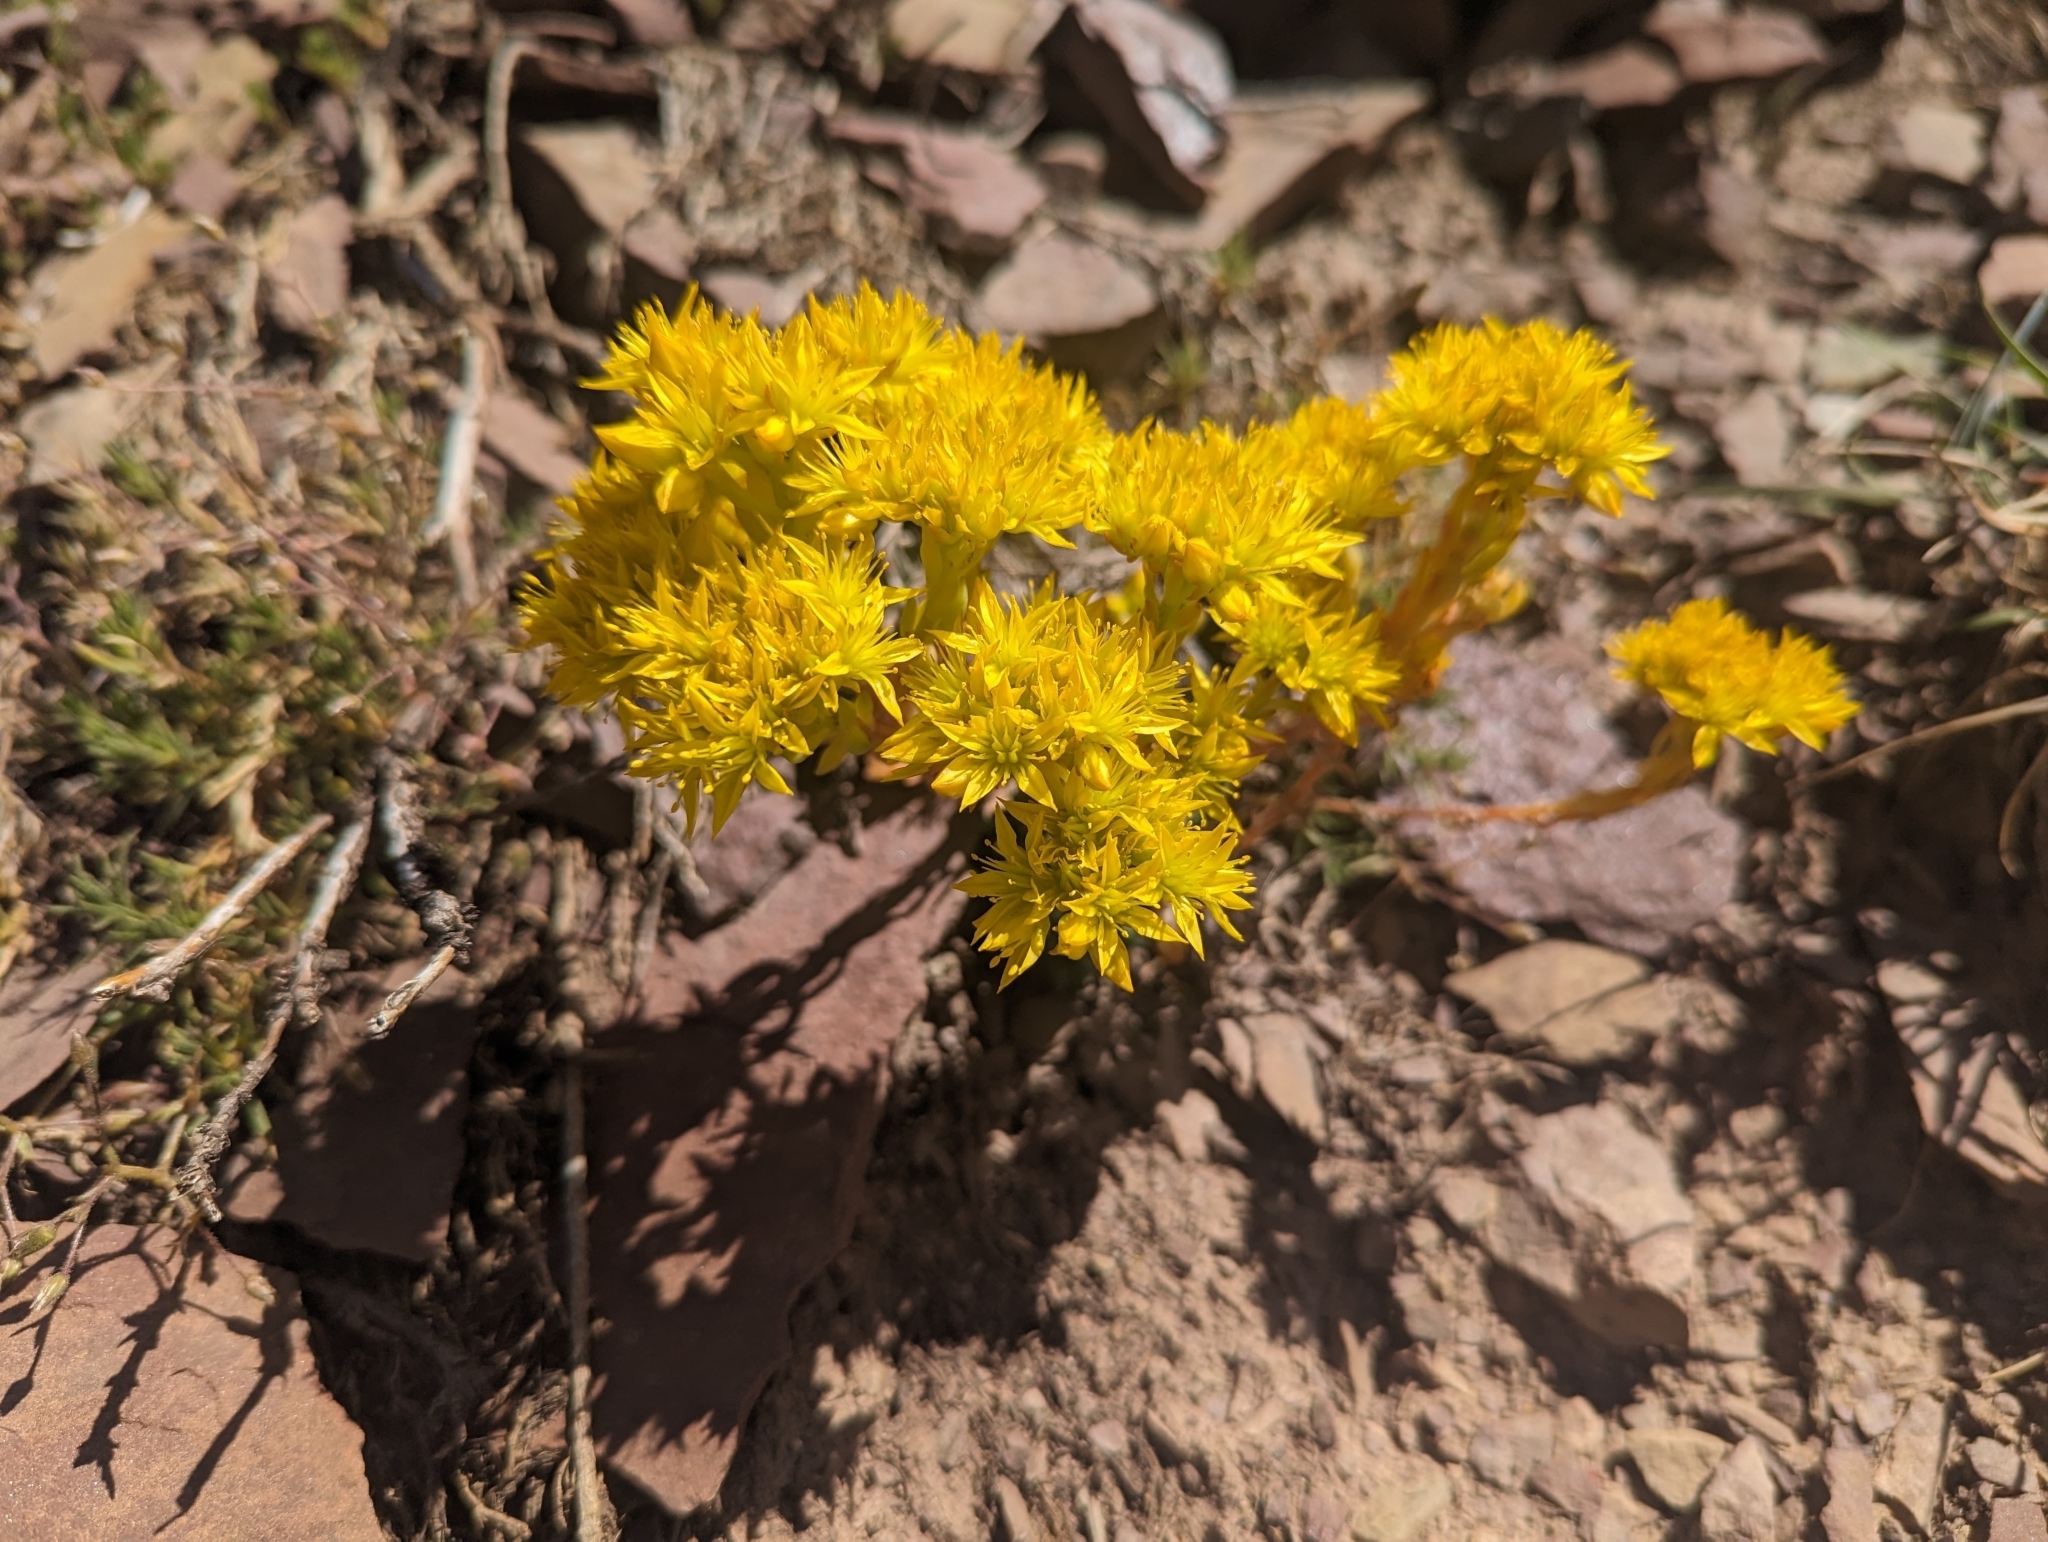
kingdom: Plantae
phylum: Tracheophyta
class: Magnoliopsida
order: Saxifragales
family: Crassulaceae
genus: Sedum
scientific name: Sedum lanceolatum
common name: Common stonecrop
